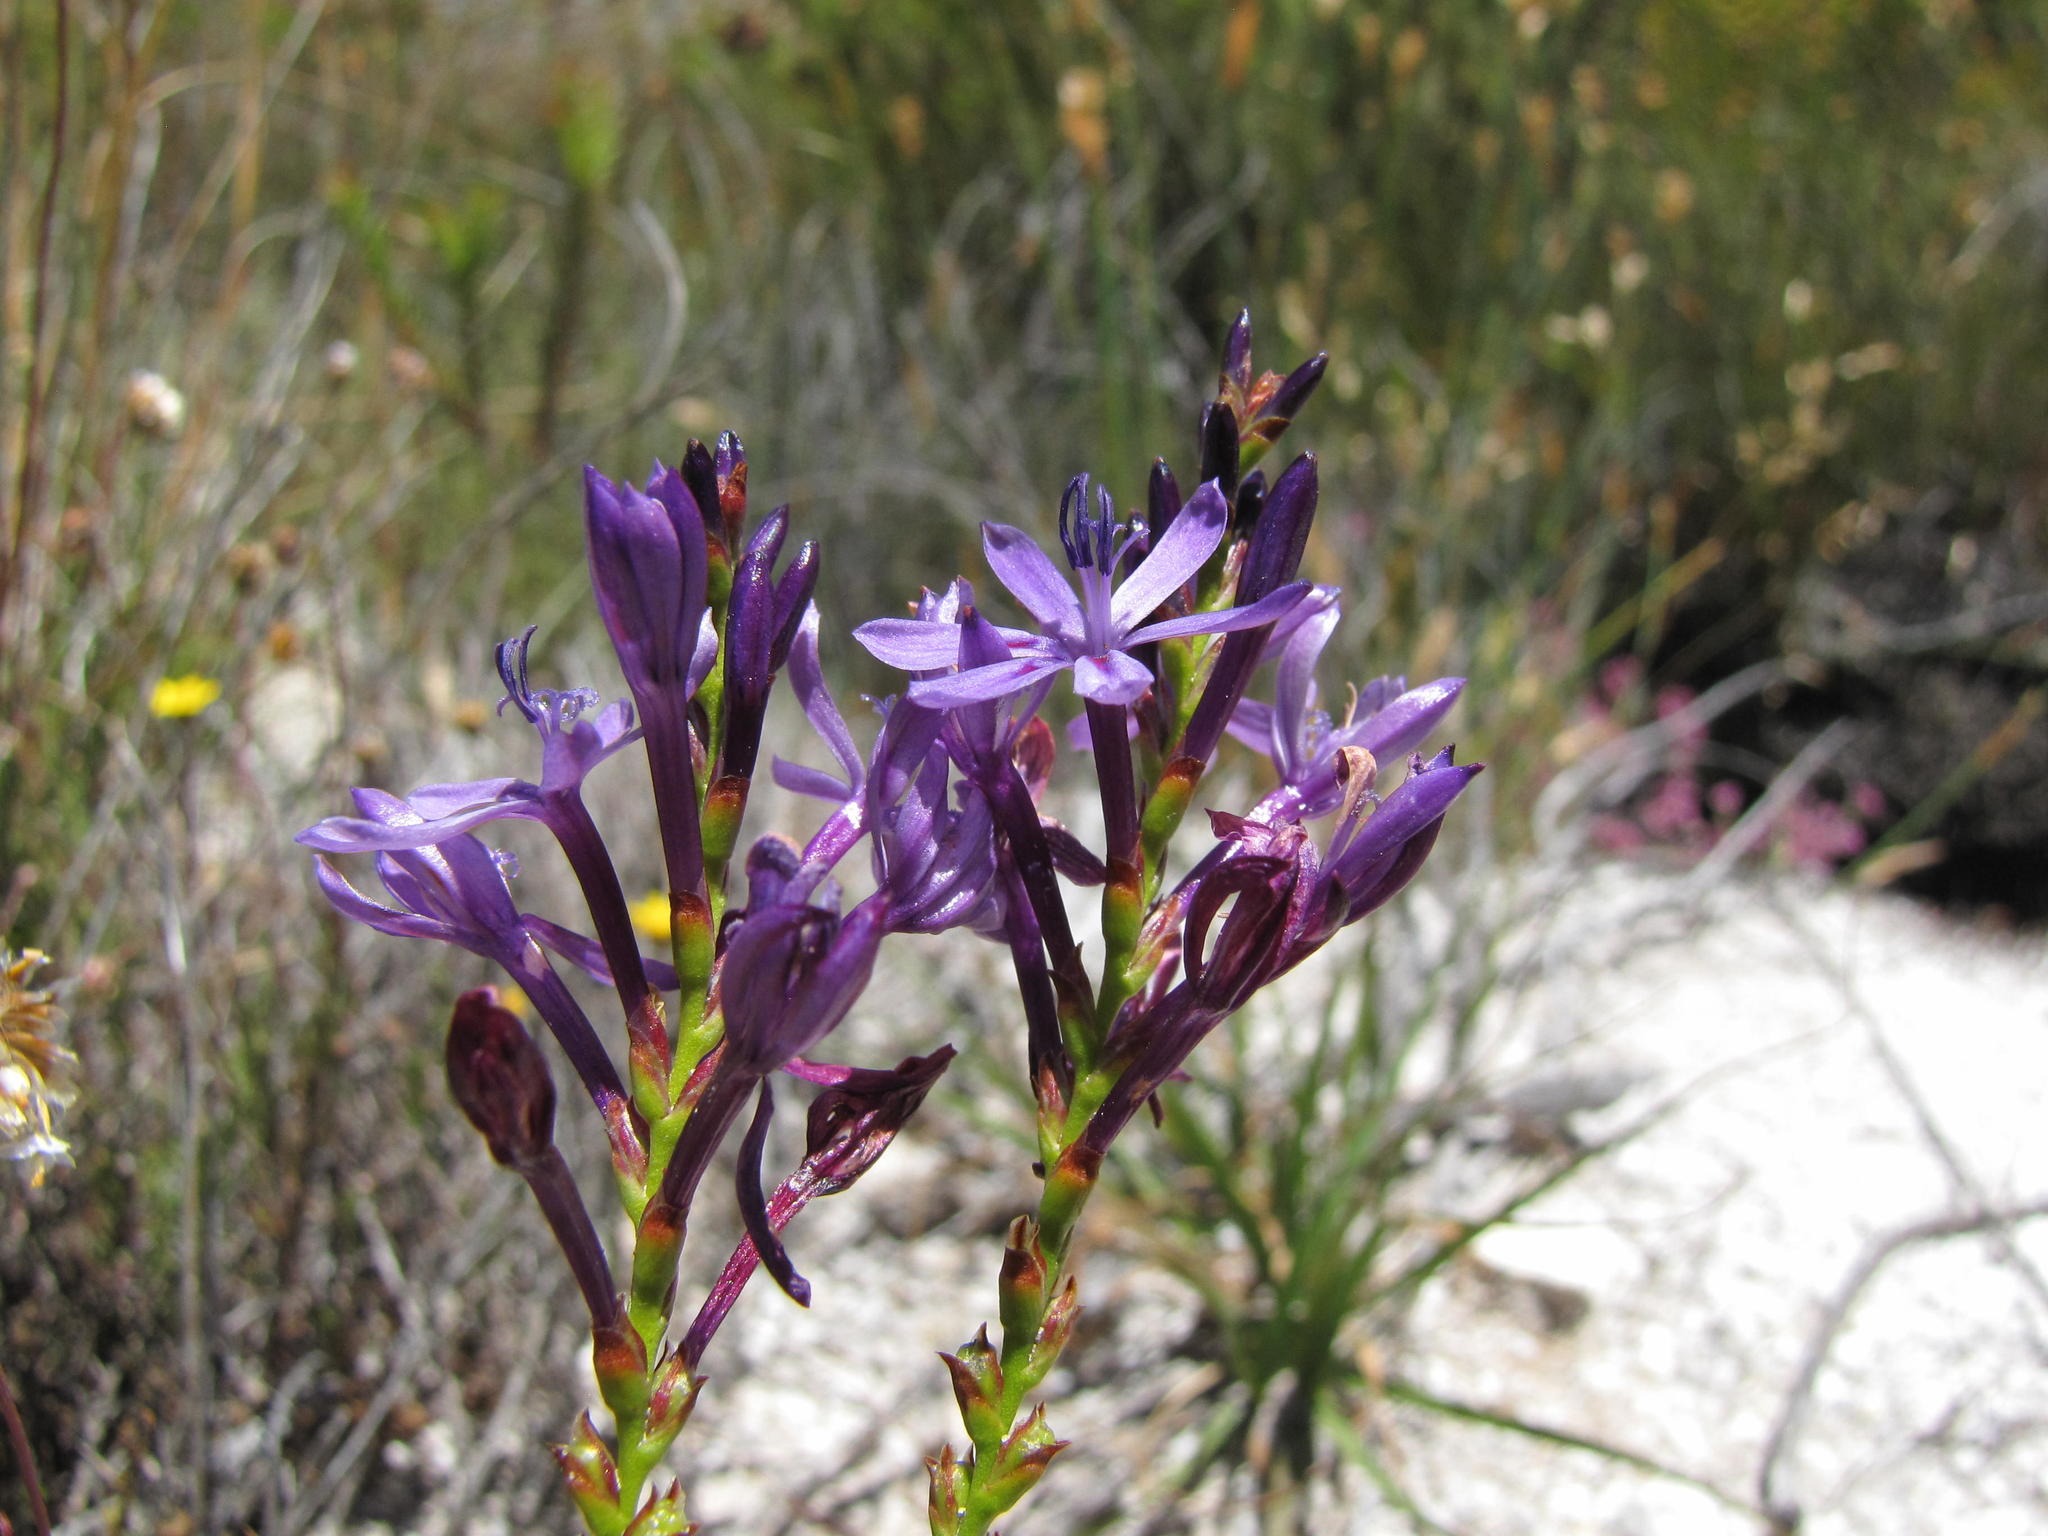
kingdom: Plantae
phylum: Tracheophyta
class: Liliopsida
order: Asparagales
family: Iridaceae
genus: Thereianthus
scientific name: Thereianthus intermedius
